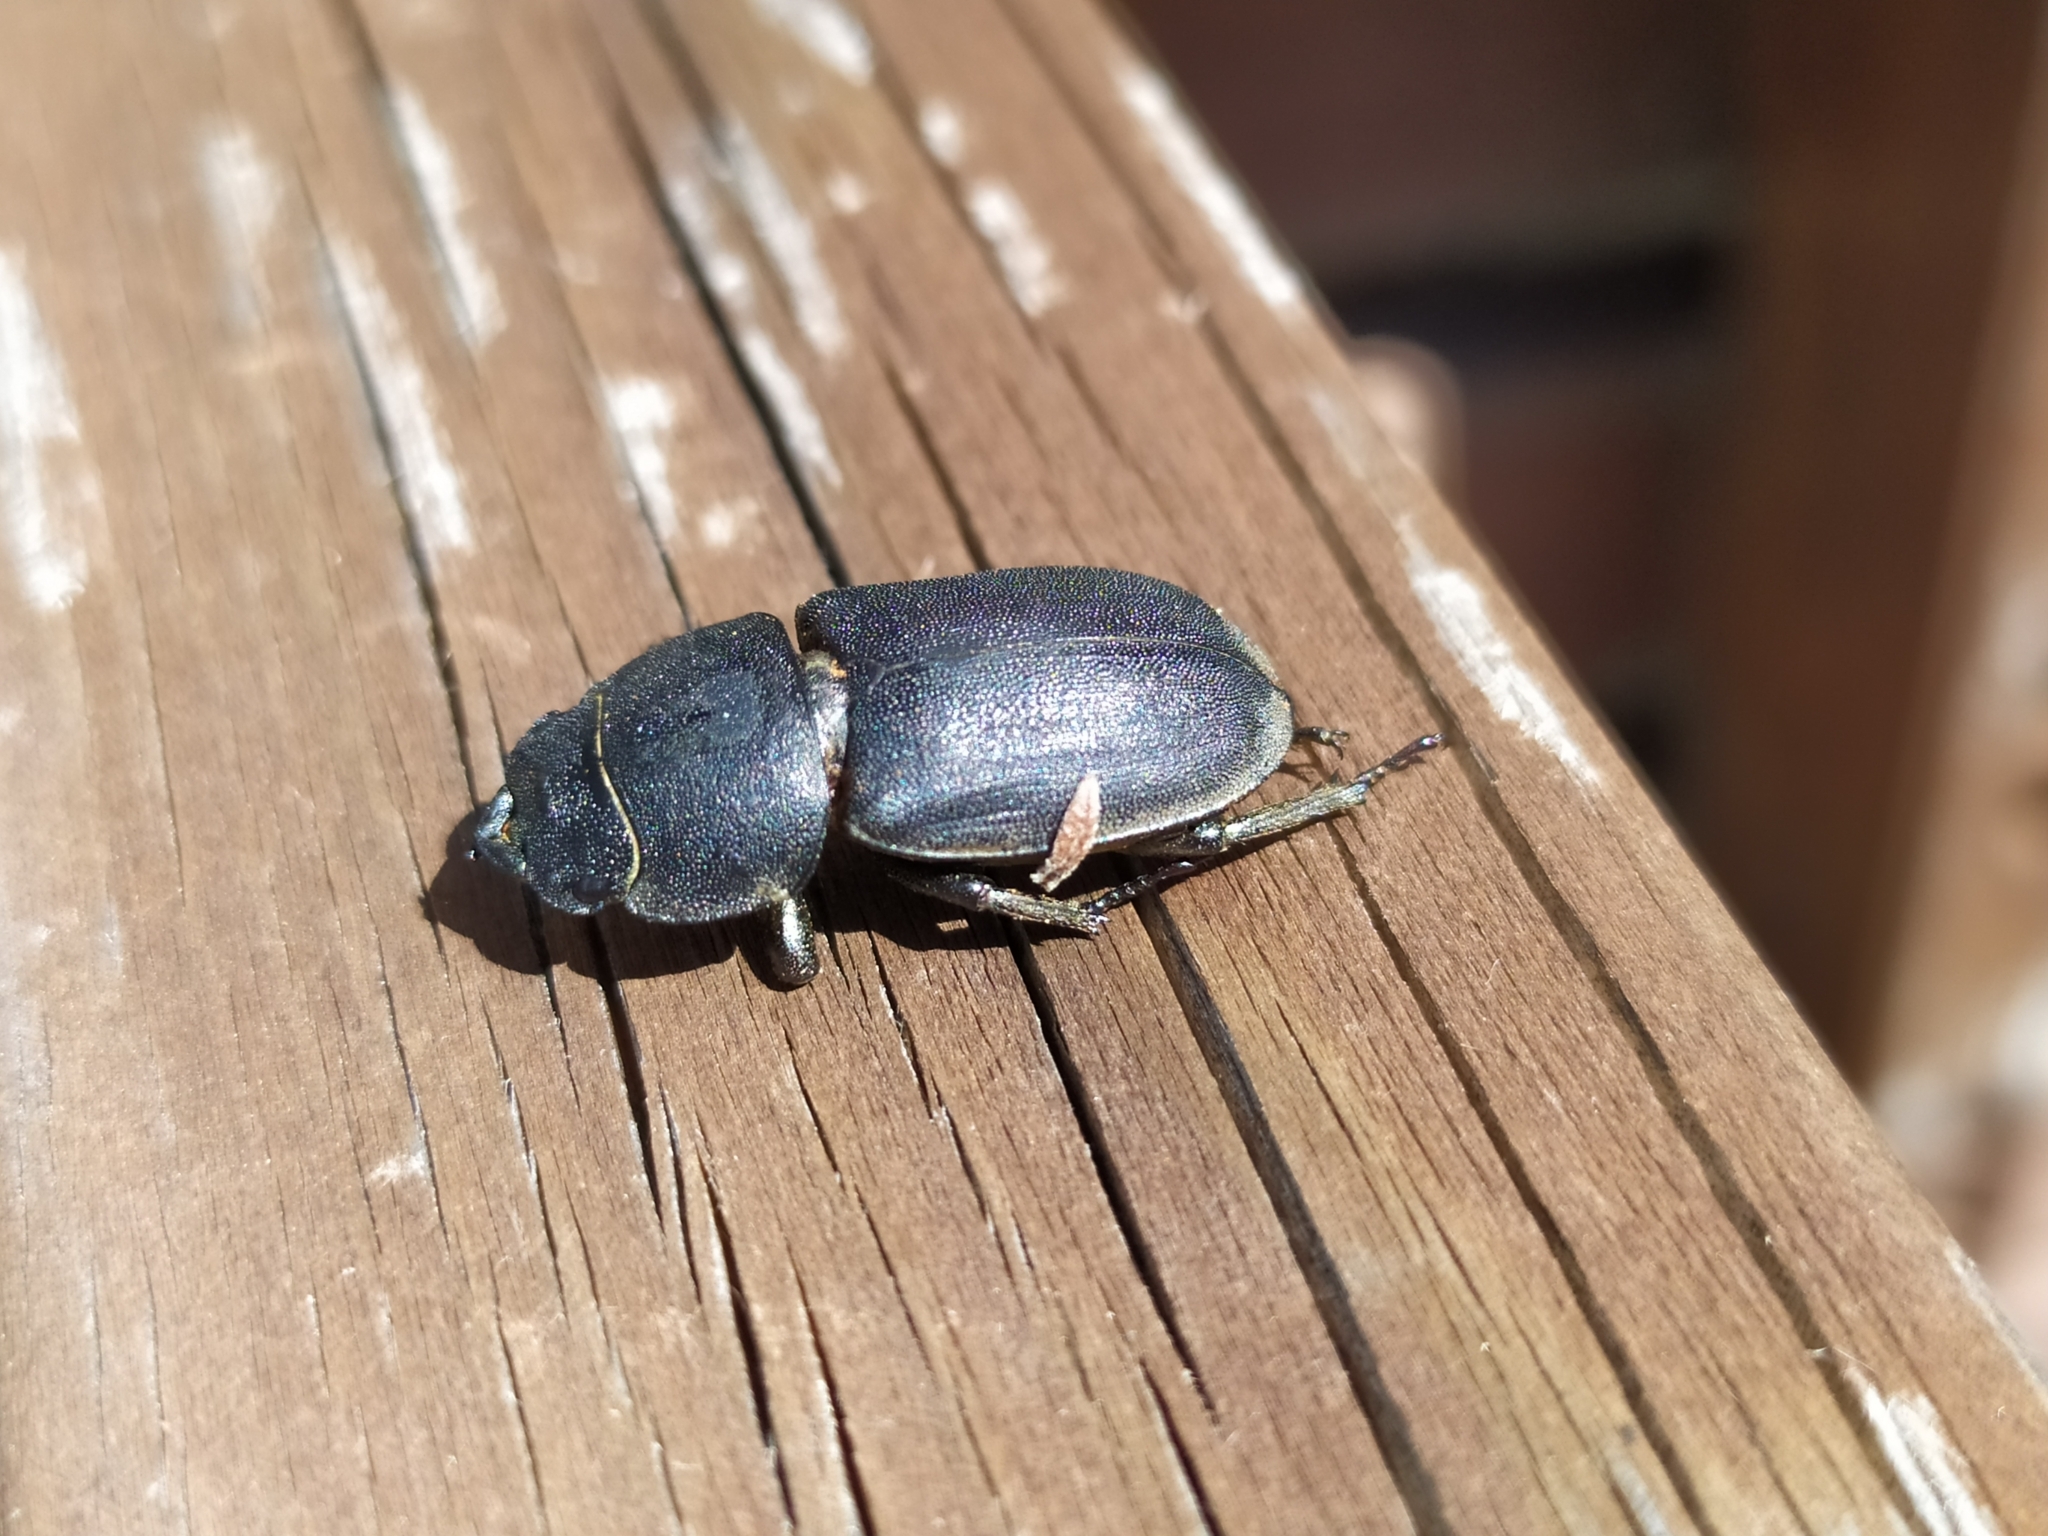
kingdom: Animalia
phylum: Arthropoda
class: Insecta
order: Coleoptera
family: Lucanidae
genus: Dorcus
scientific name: Dorcus parallelipipedus
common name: Lesser stag beetle
